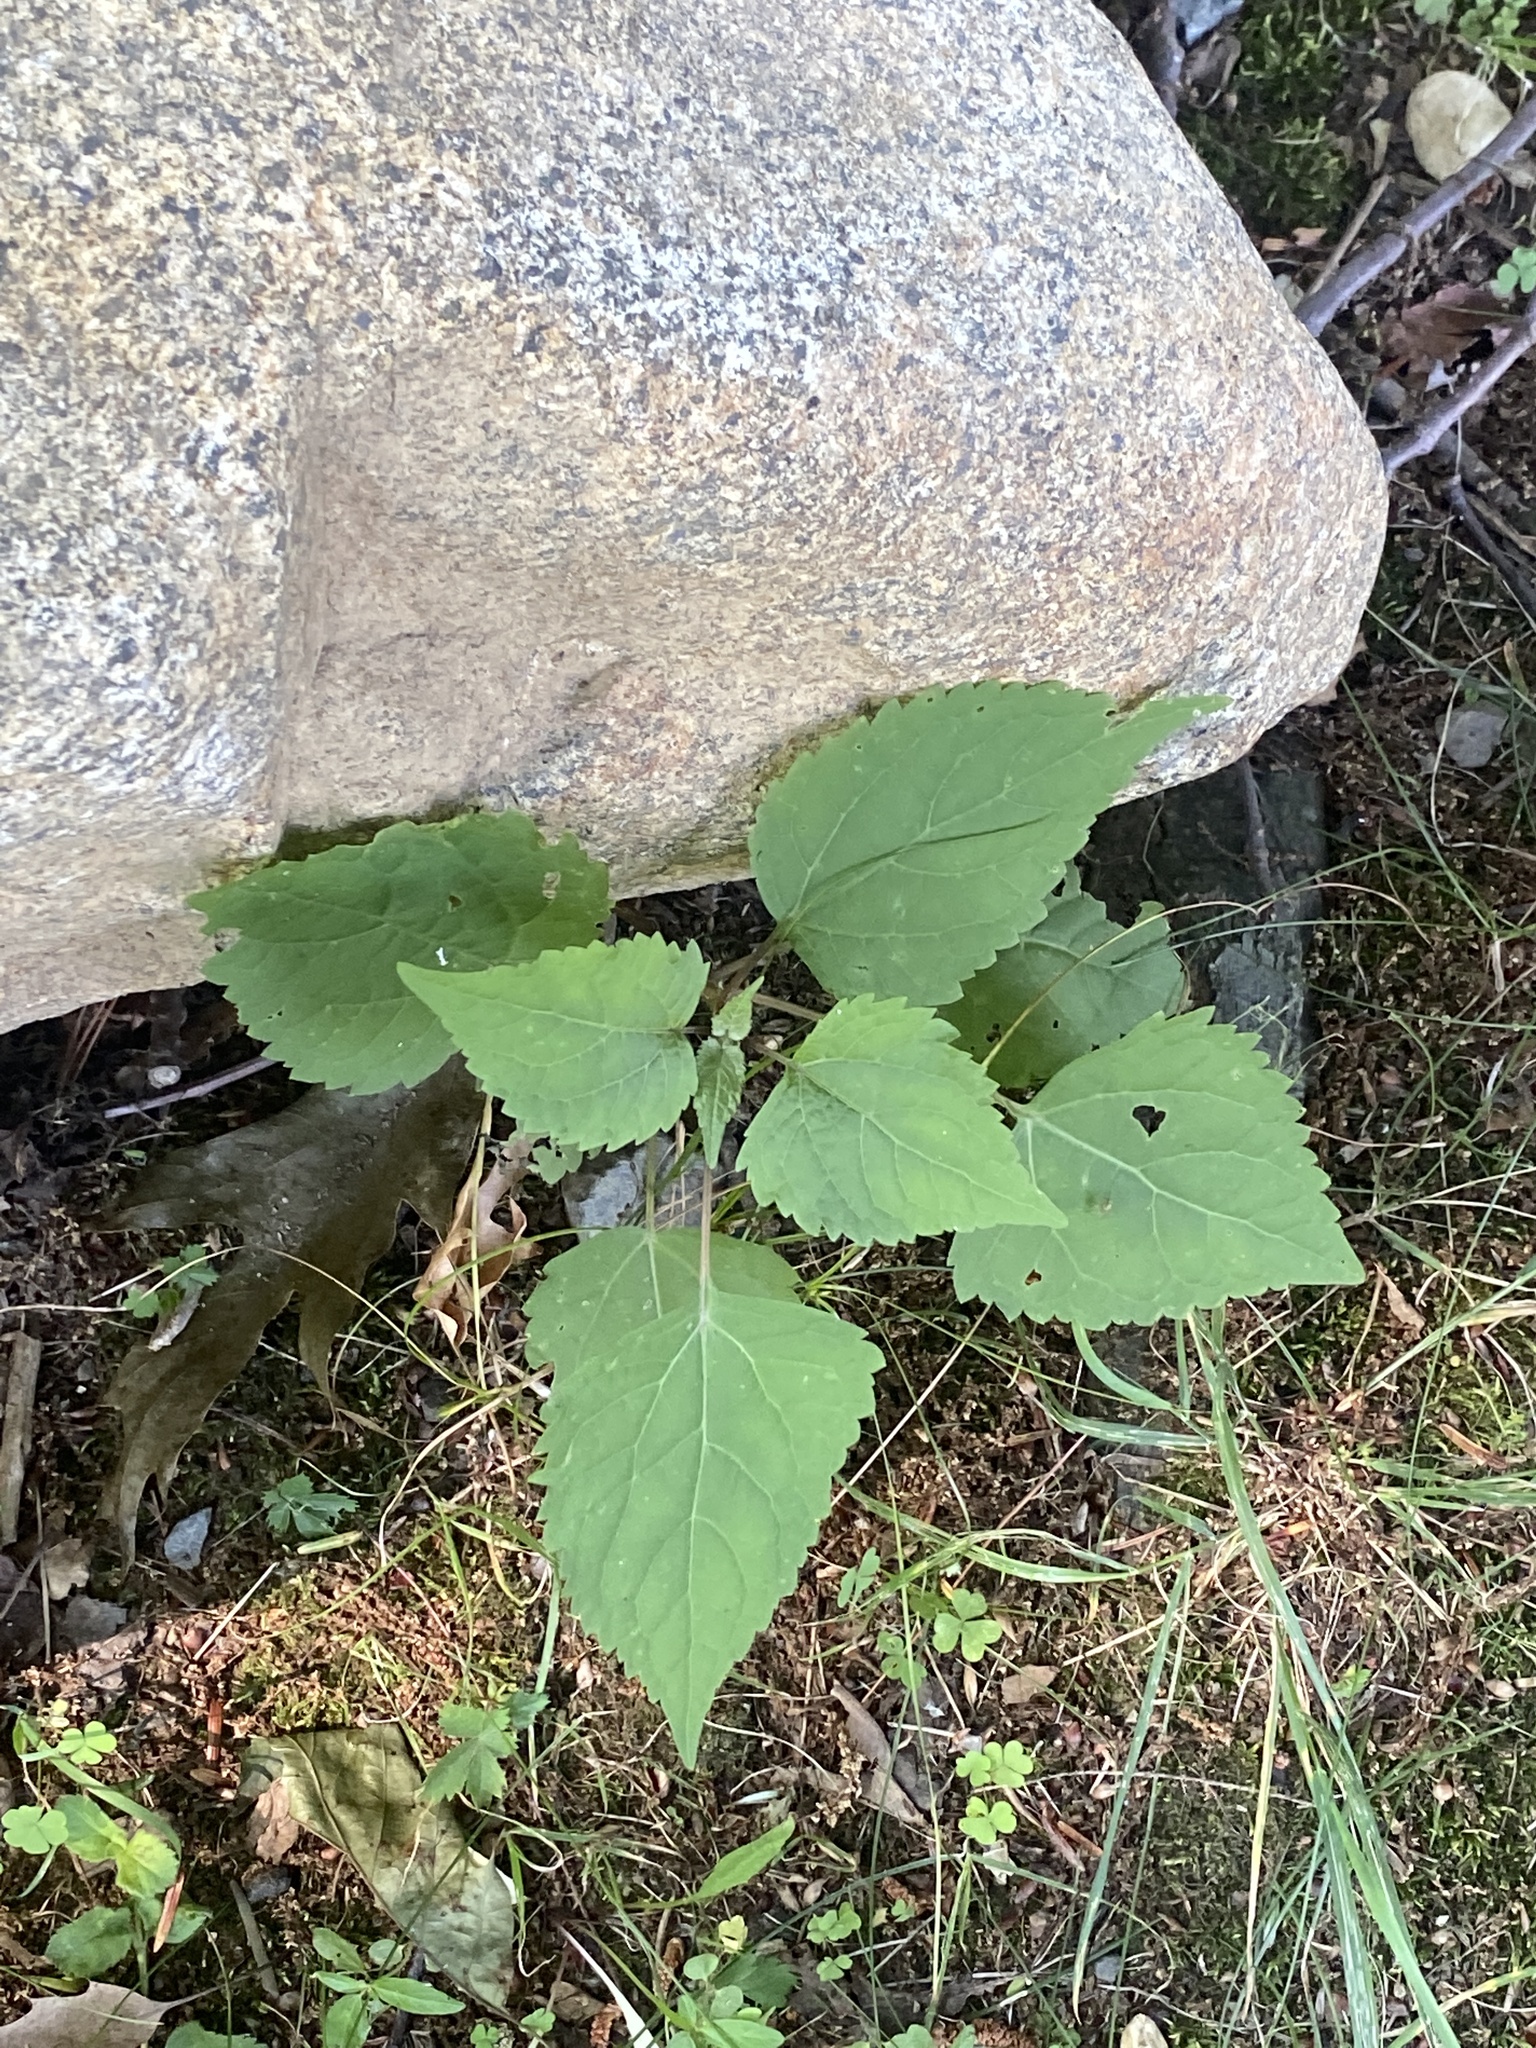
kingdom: Plantae
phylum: Tracheophyta
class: Magnoliopsida
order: Asterales
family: Asteraceae
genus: Ageratina
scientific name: Ageratina altissima
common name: White snakeroot
